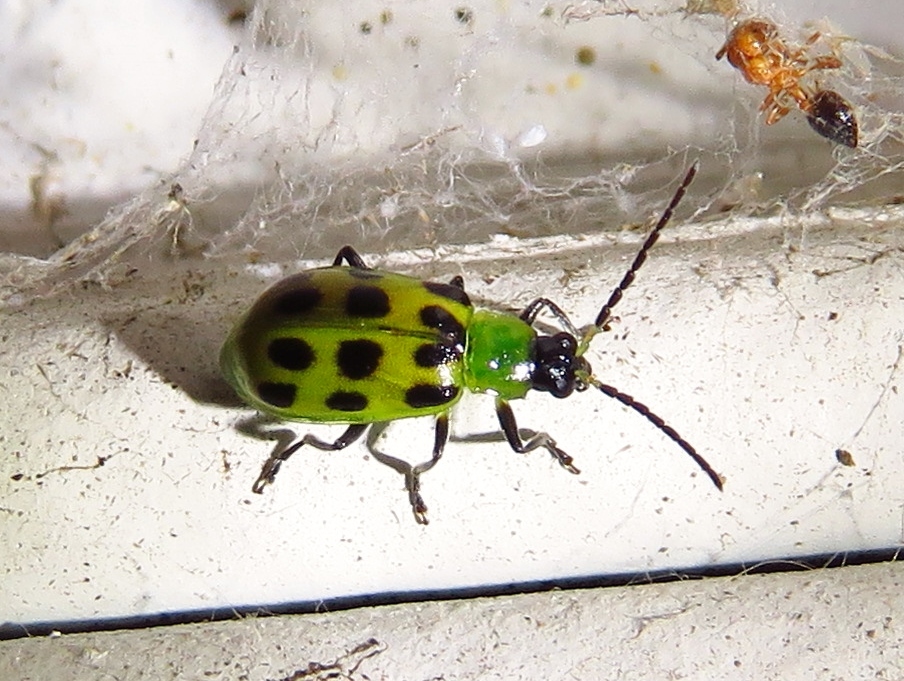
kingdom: Animalia
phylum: Arthropoda
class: Insecta
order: Coleoptera
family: Chrysomelidae
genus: Diabrotica
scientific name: Diabrotica undecimpunctata
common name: Spotted cucumber beetle
